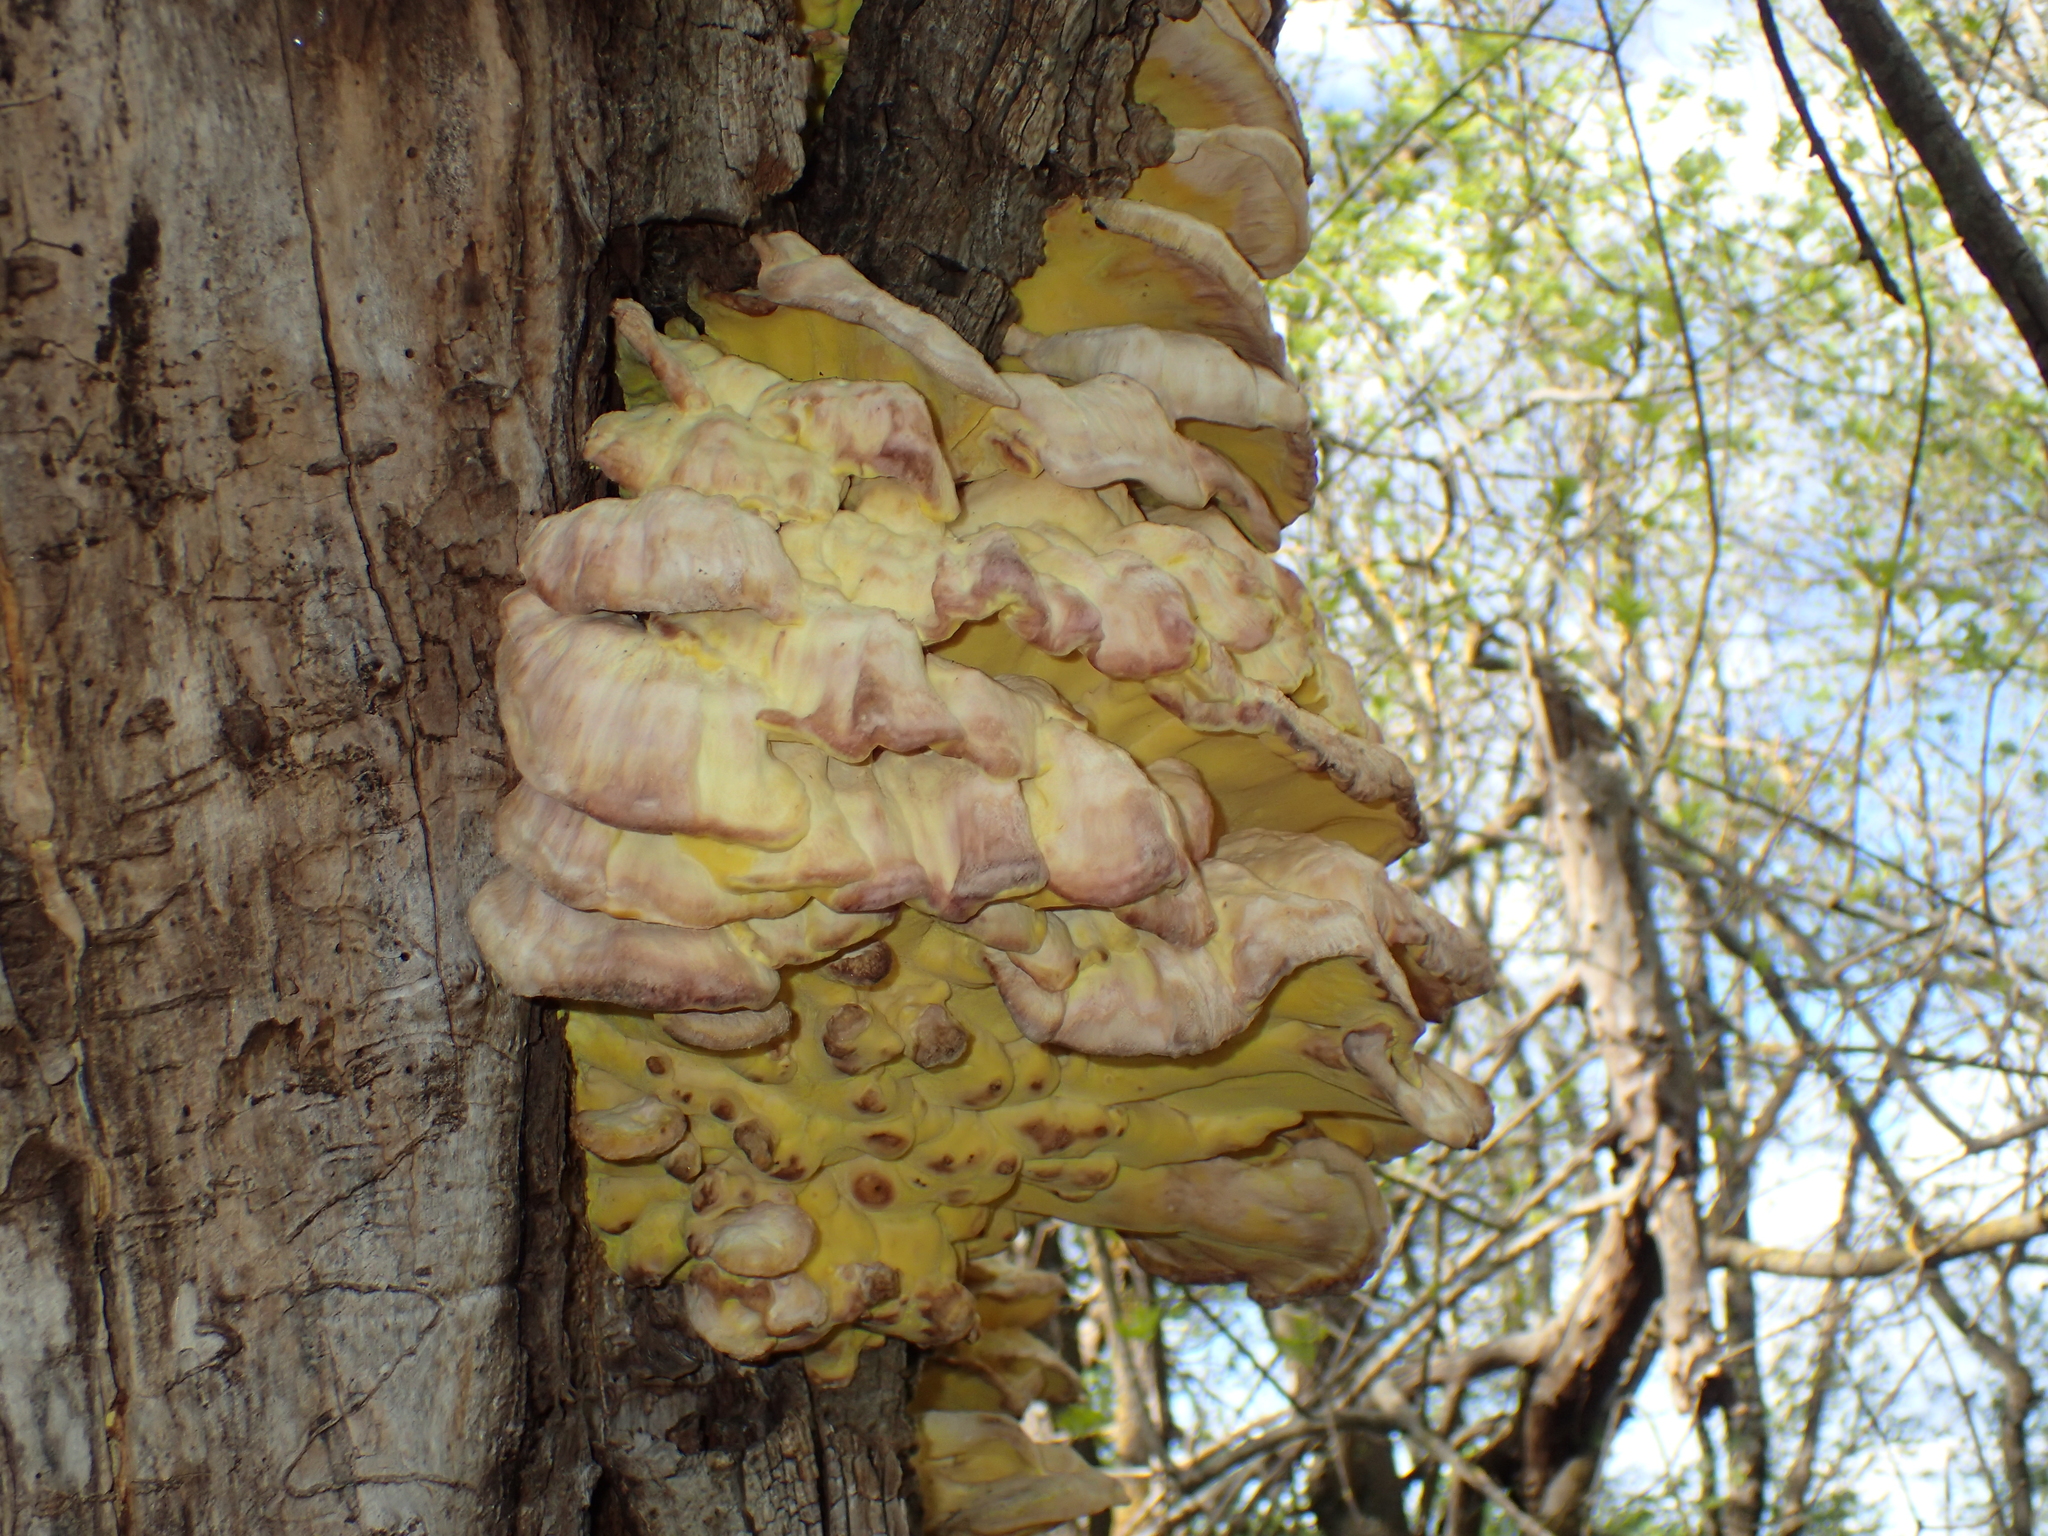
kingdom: Fungi
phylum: Basidiomycota
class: Agaricomycetes
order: Polyporales
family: Laetiporaceae
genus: Laetiporus
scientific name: Laetiporus sulphureus
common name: Chicken of the woods
